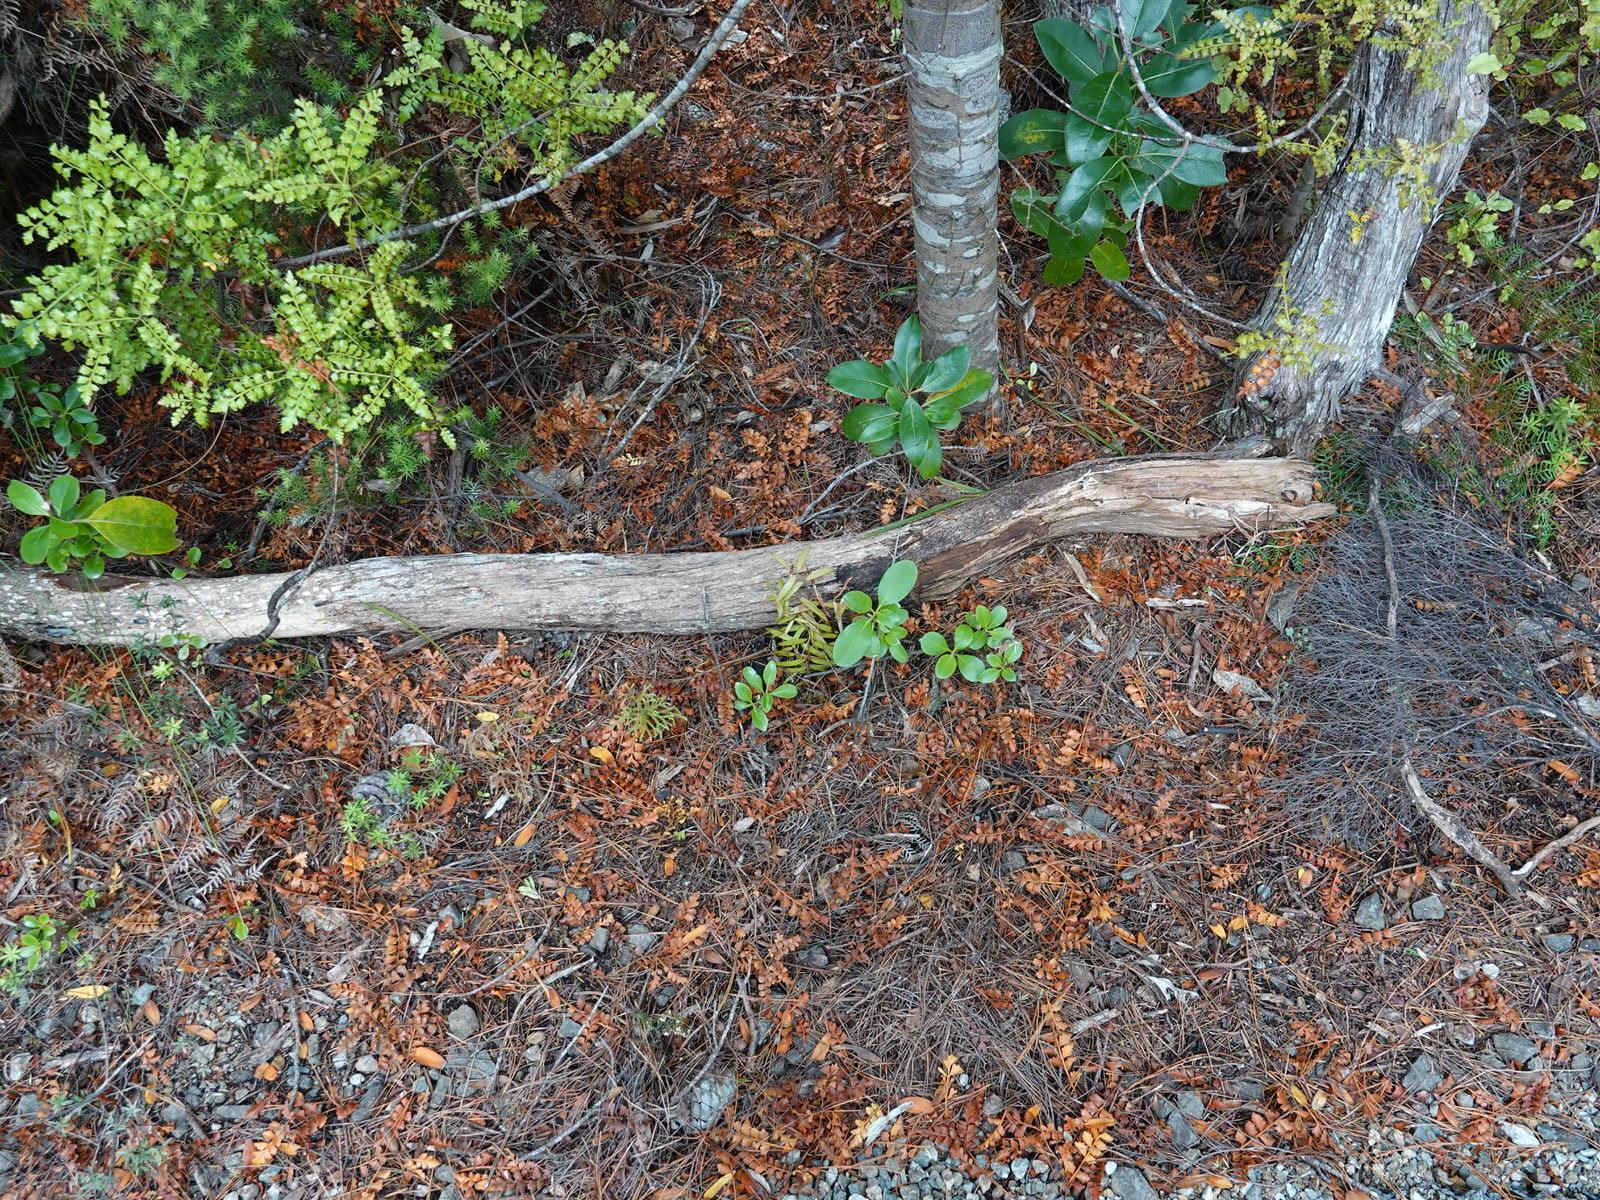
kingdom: Plantae
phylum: Tracheophyta
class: Pinopsida
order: Pinales
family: Araucariaceae
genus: Agathis
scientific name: Agathis australis
